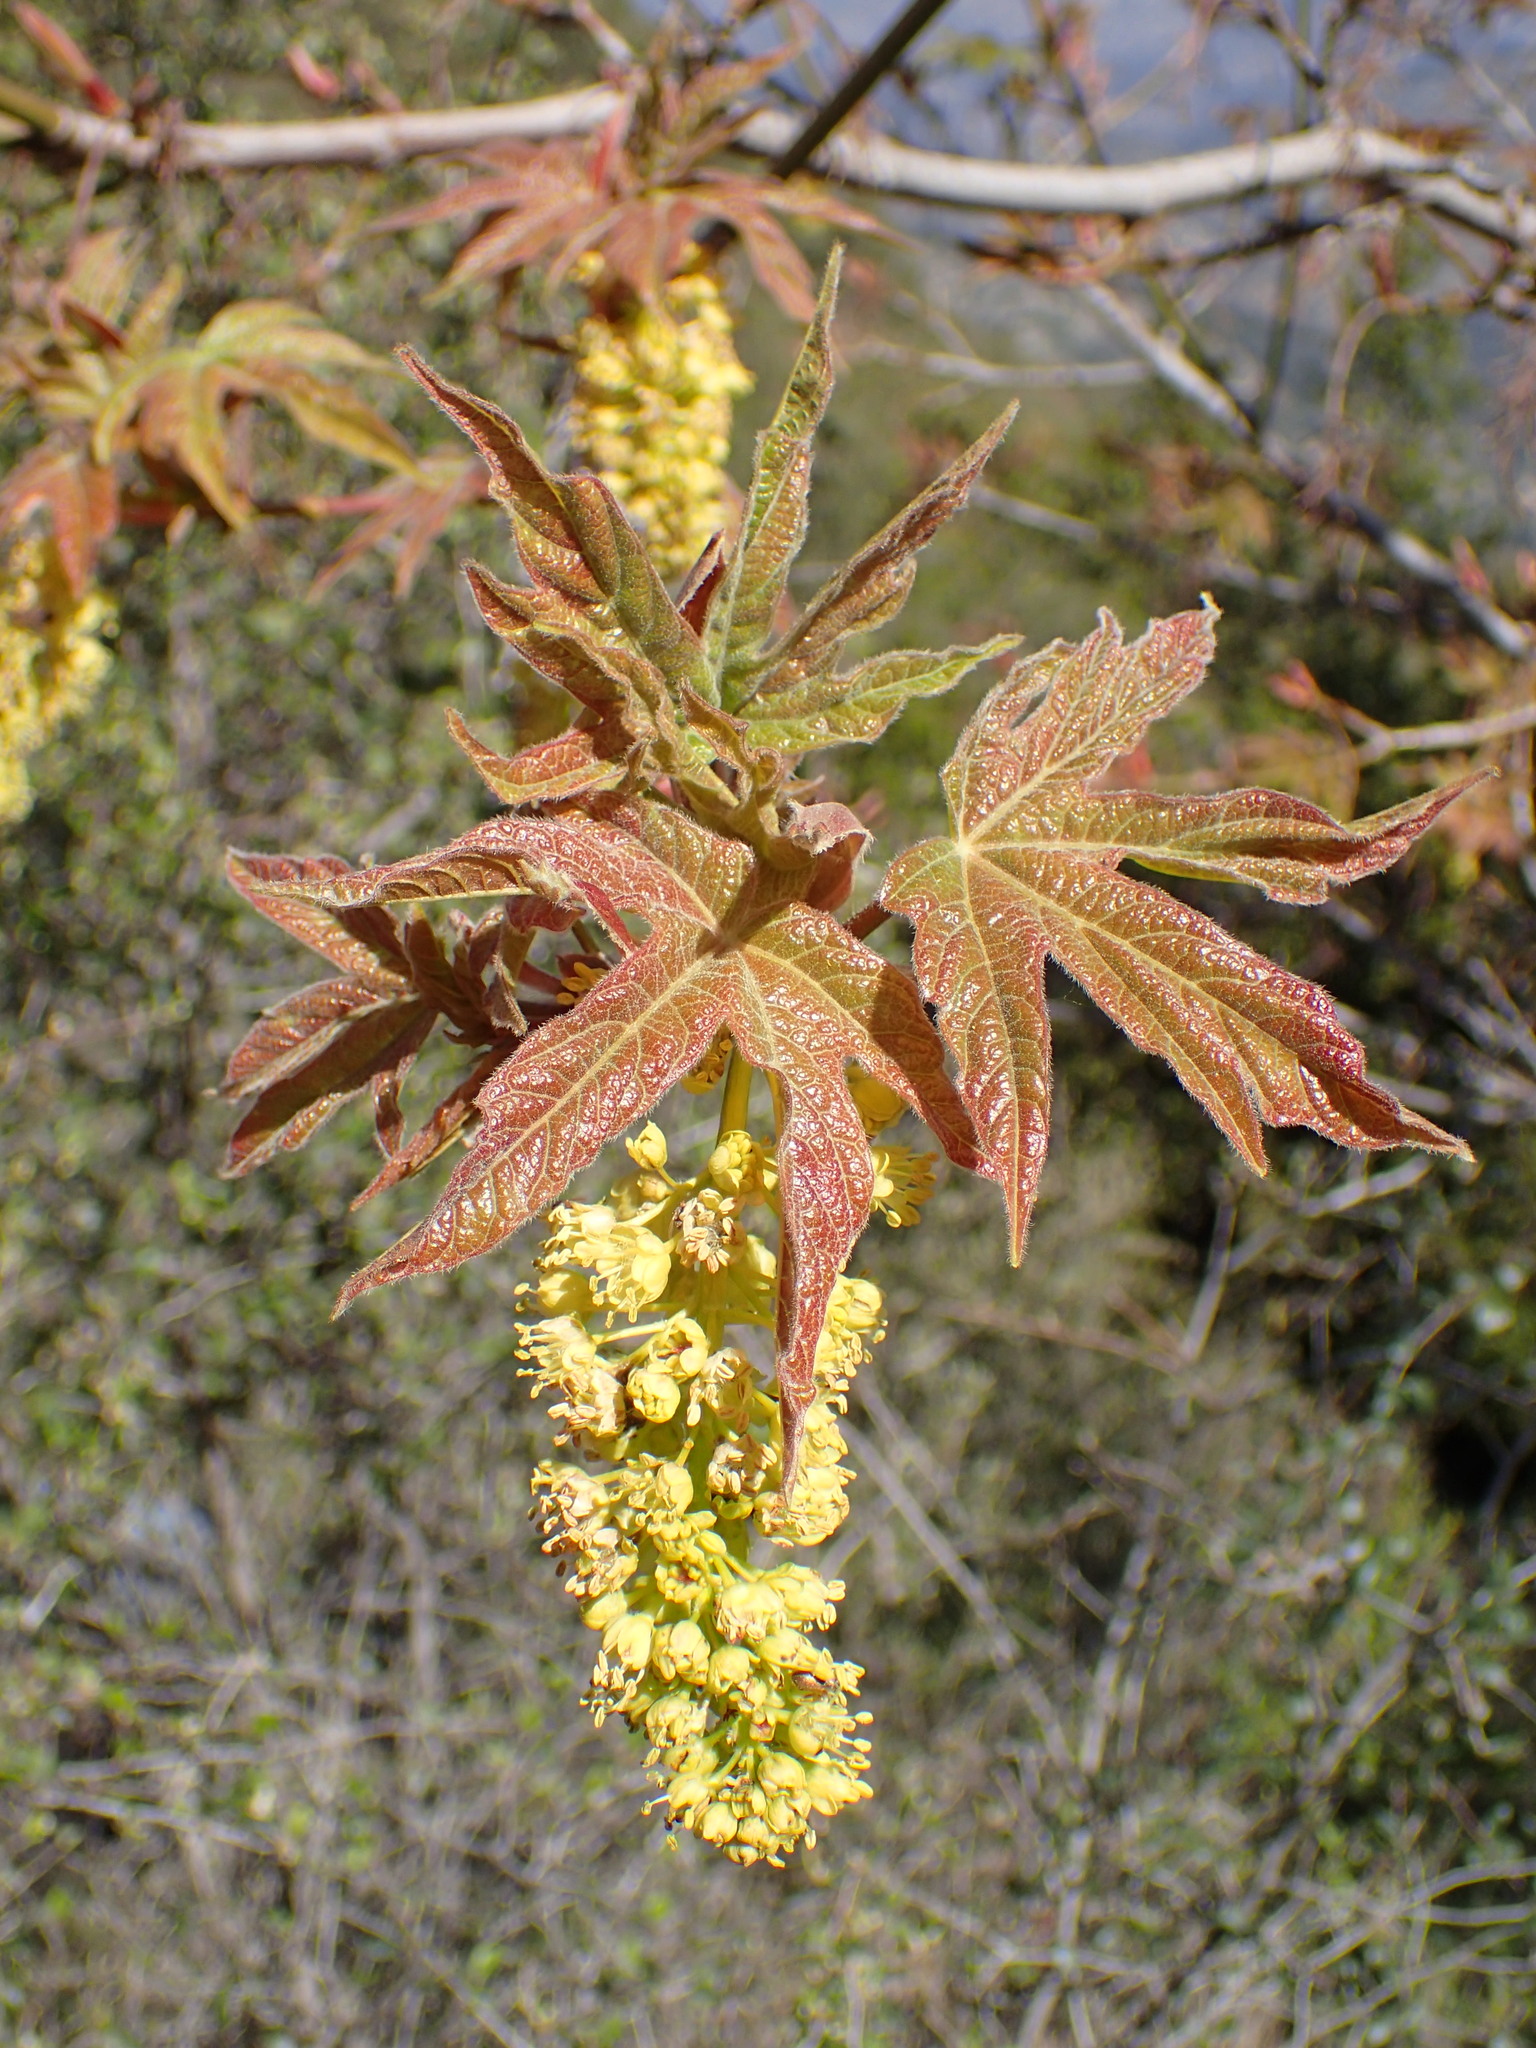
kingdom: Plantae
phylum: Tracheophyta
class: Magnoliopsida
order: Sapindales
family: Sapindaceae
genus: Acer
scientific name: Acer macrophyllum
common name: Oregon maple
